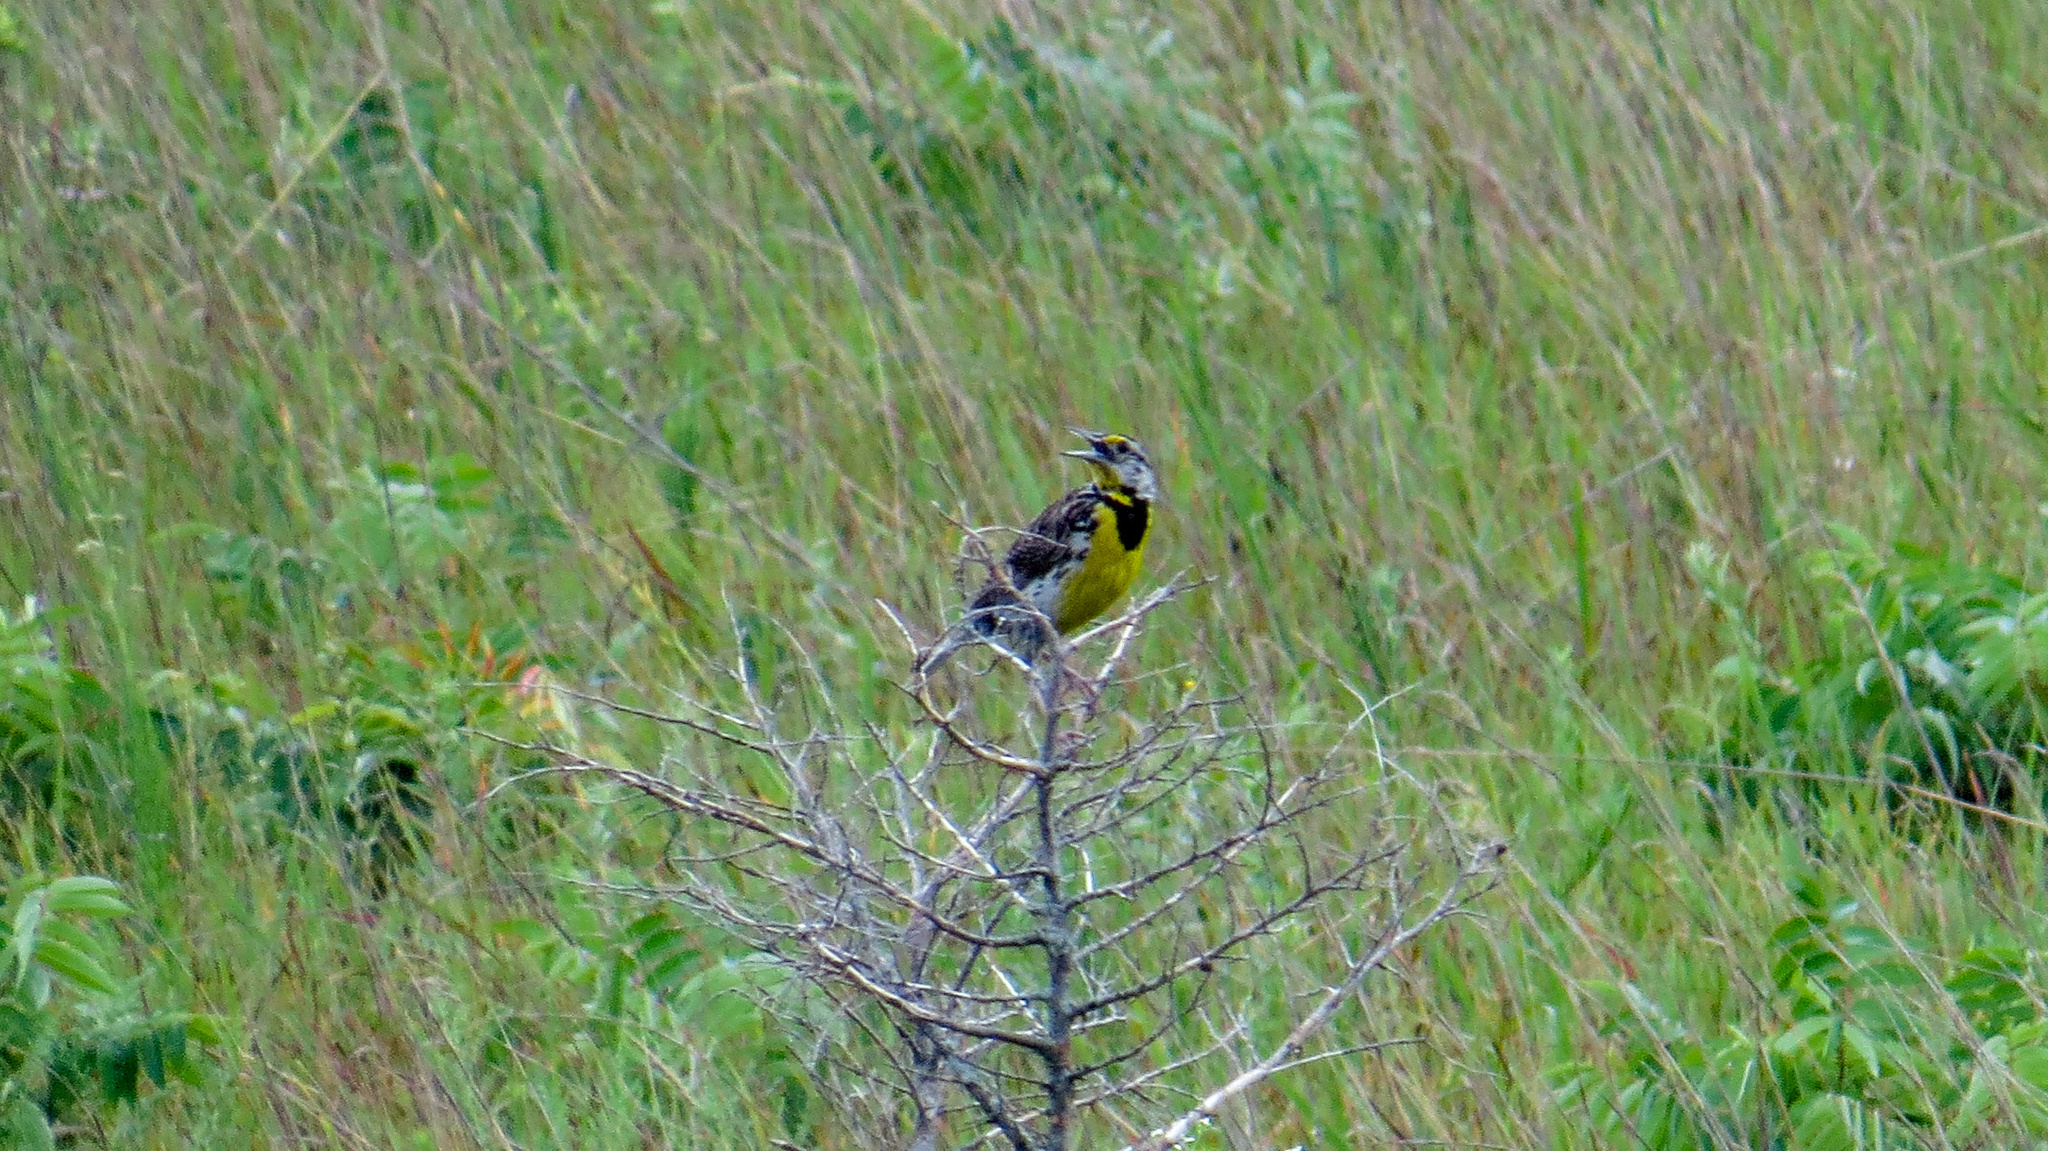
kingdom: Animalia
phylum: Chordata
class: Aves
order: Passeriformes
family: Icteridae
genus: Sturnella
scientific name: Sturnella magna
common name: Eastern meadowlark
